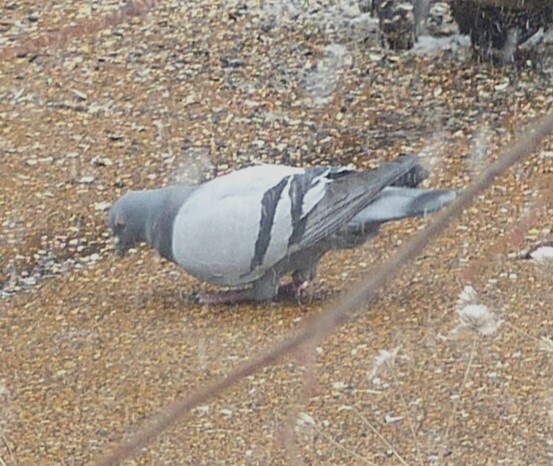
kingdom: Animalia
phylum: Chordata
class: Aves
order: Columbiformes
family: Columbidae
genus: Columba
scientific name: Columba livia
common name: Rock pigeon
